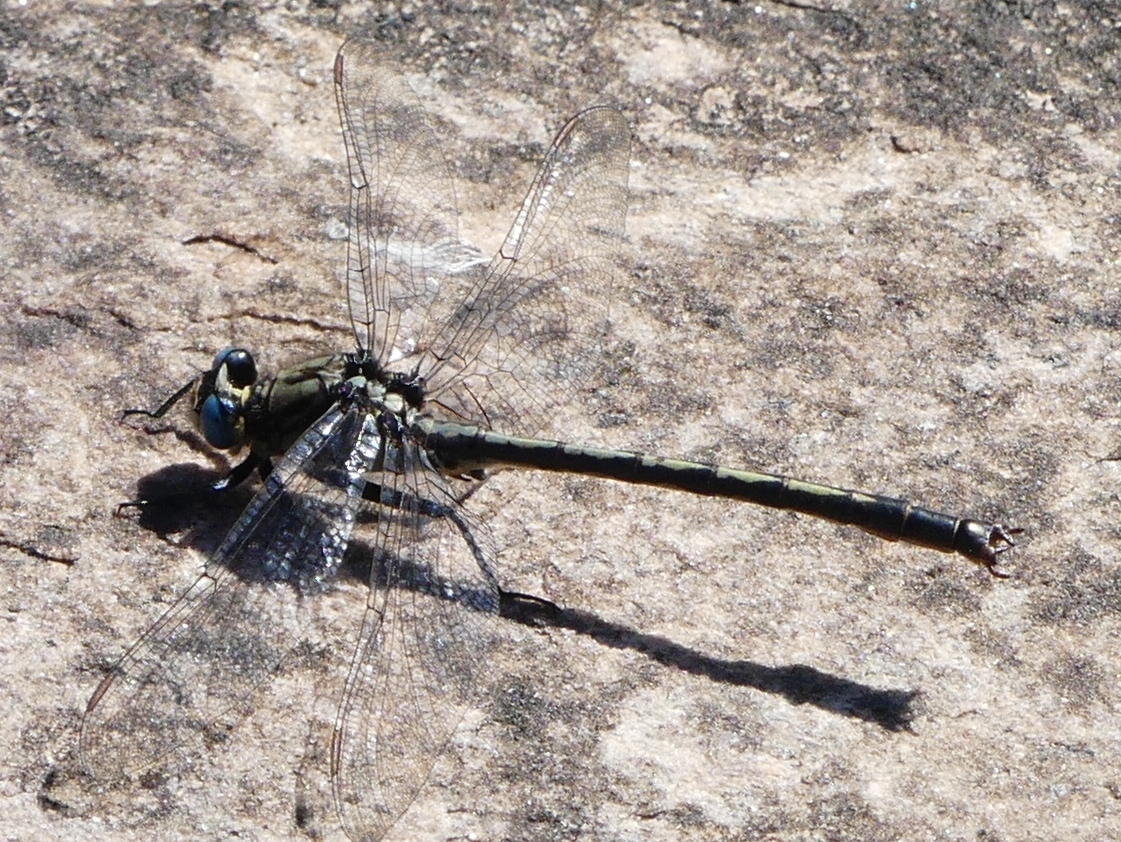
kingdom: Animalia
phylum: Arthropoda
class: Insecta
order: Odonata
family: Gomphidae
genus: Arigomphus
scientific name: Arigomphus cornutus
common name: Horned clubtail
